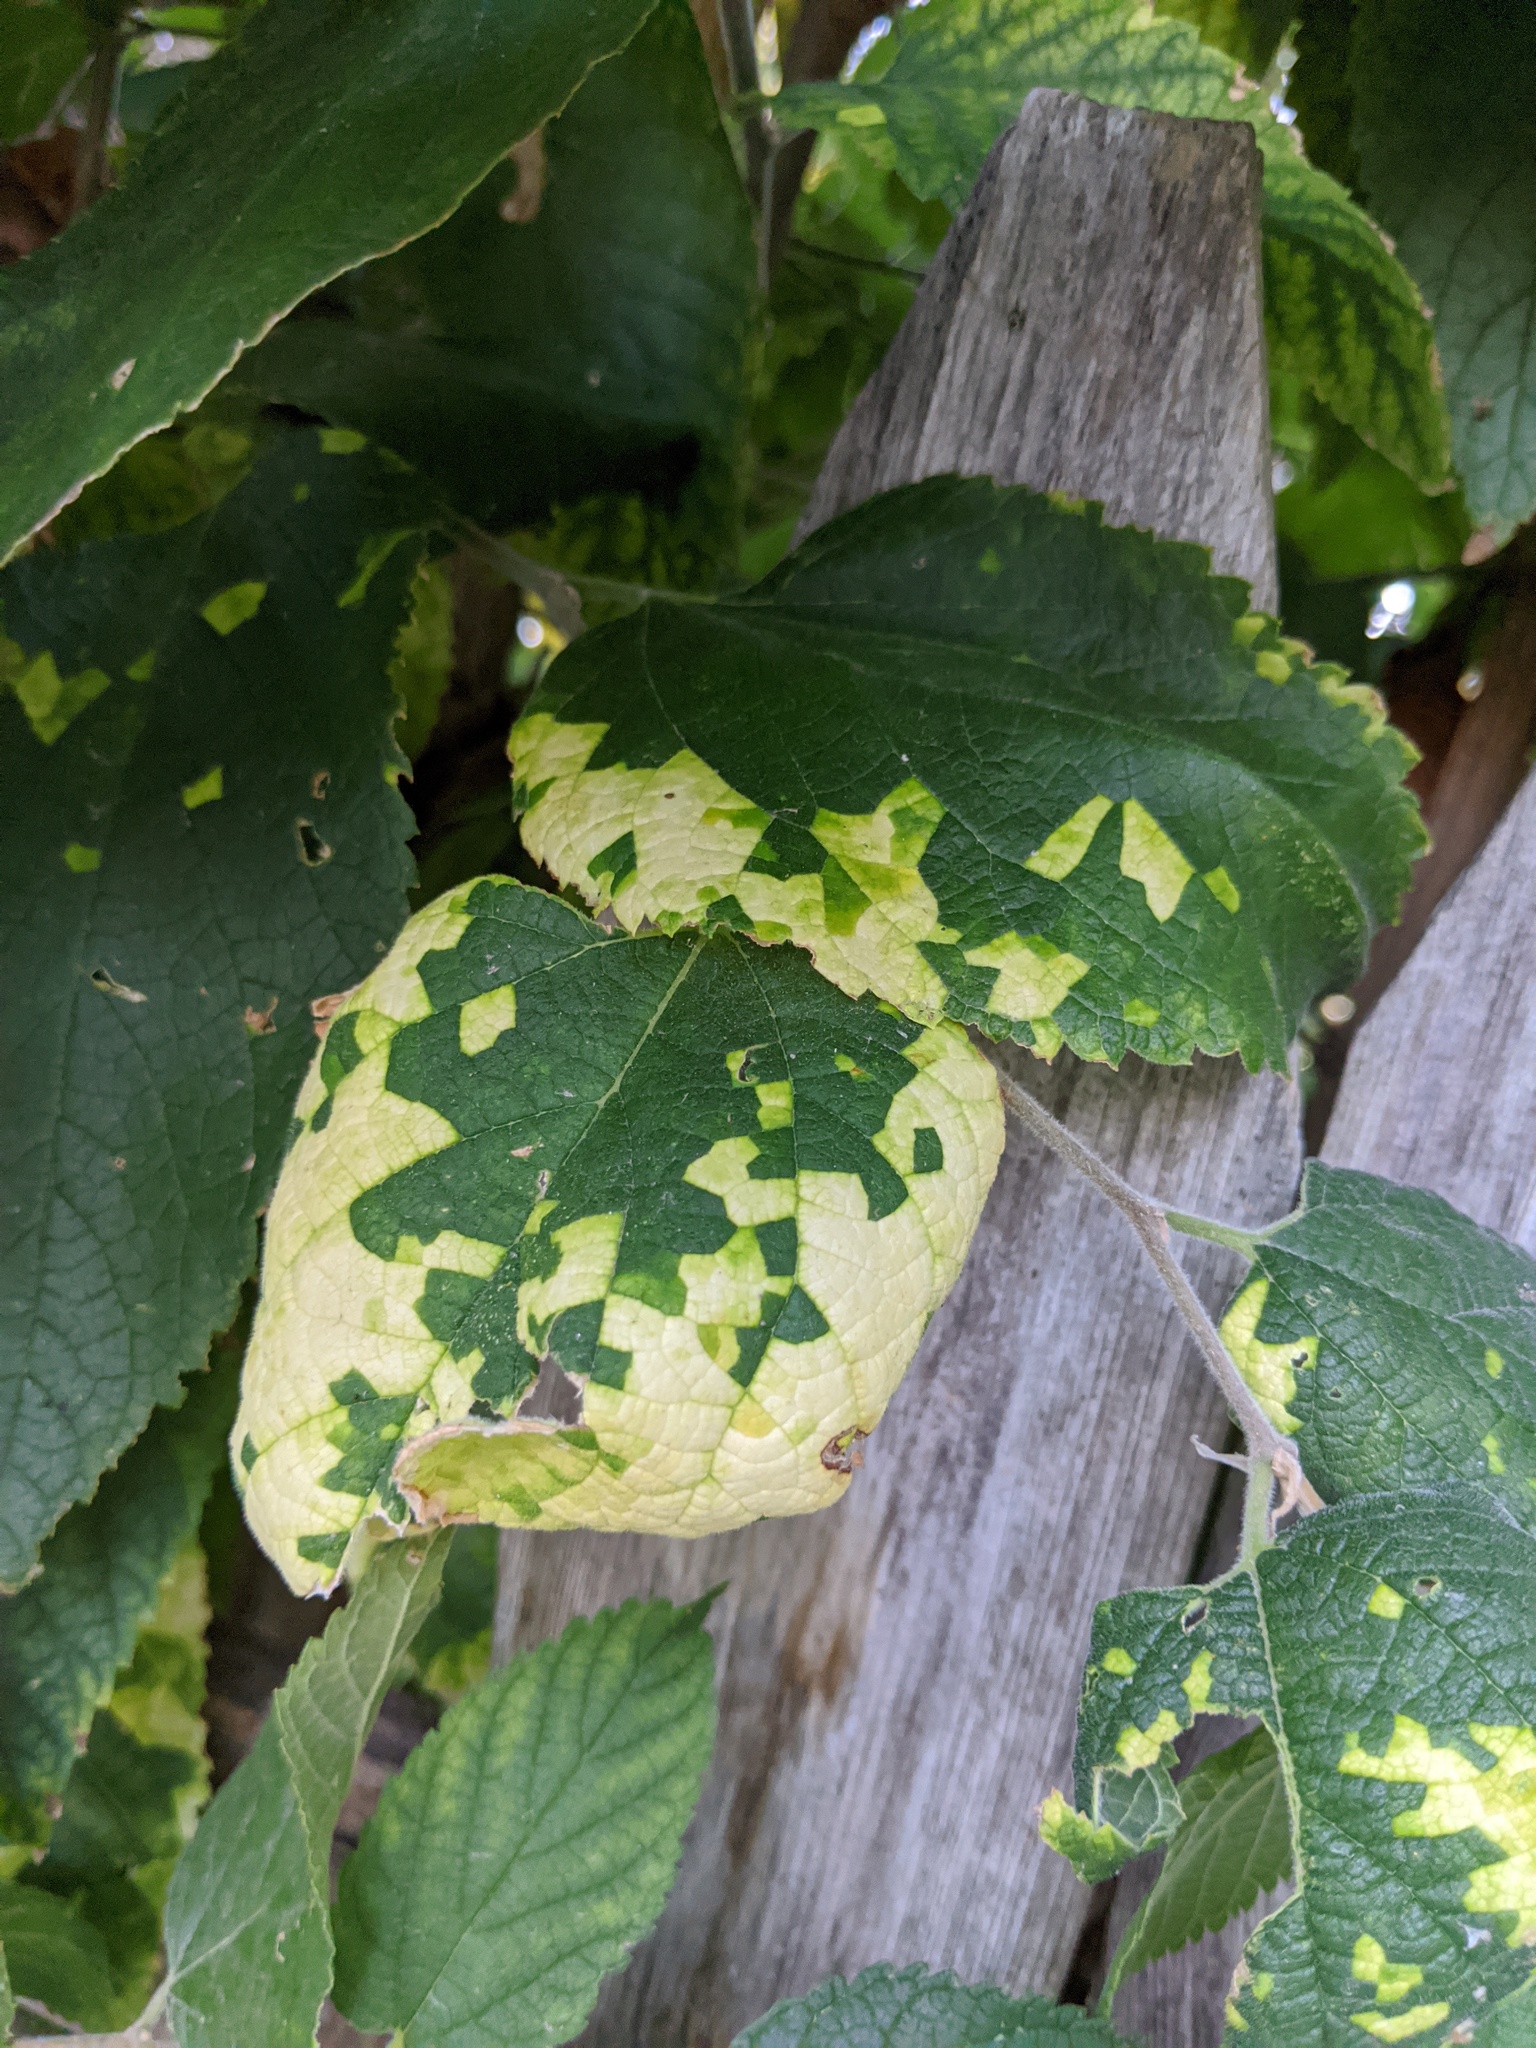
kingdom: Viruses
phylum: Kitrinoviricota
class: Alsuviricetes
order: Martellivirales
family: Closteroviridae
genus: Ampelovirus
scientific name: Ampelovirus
